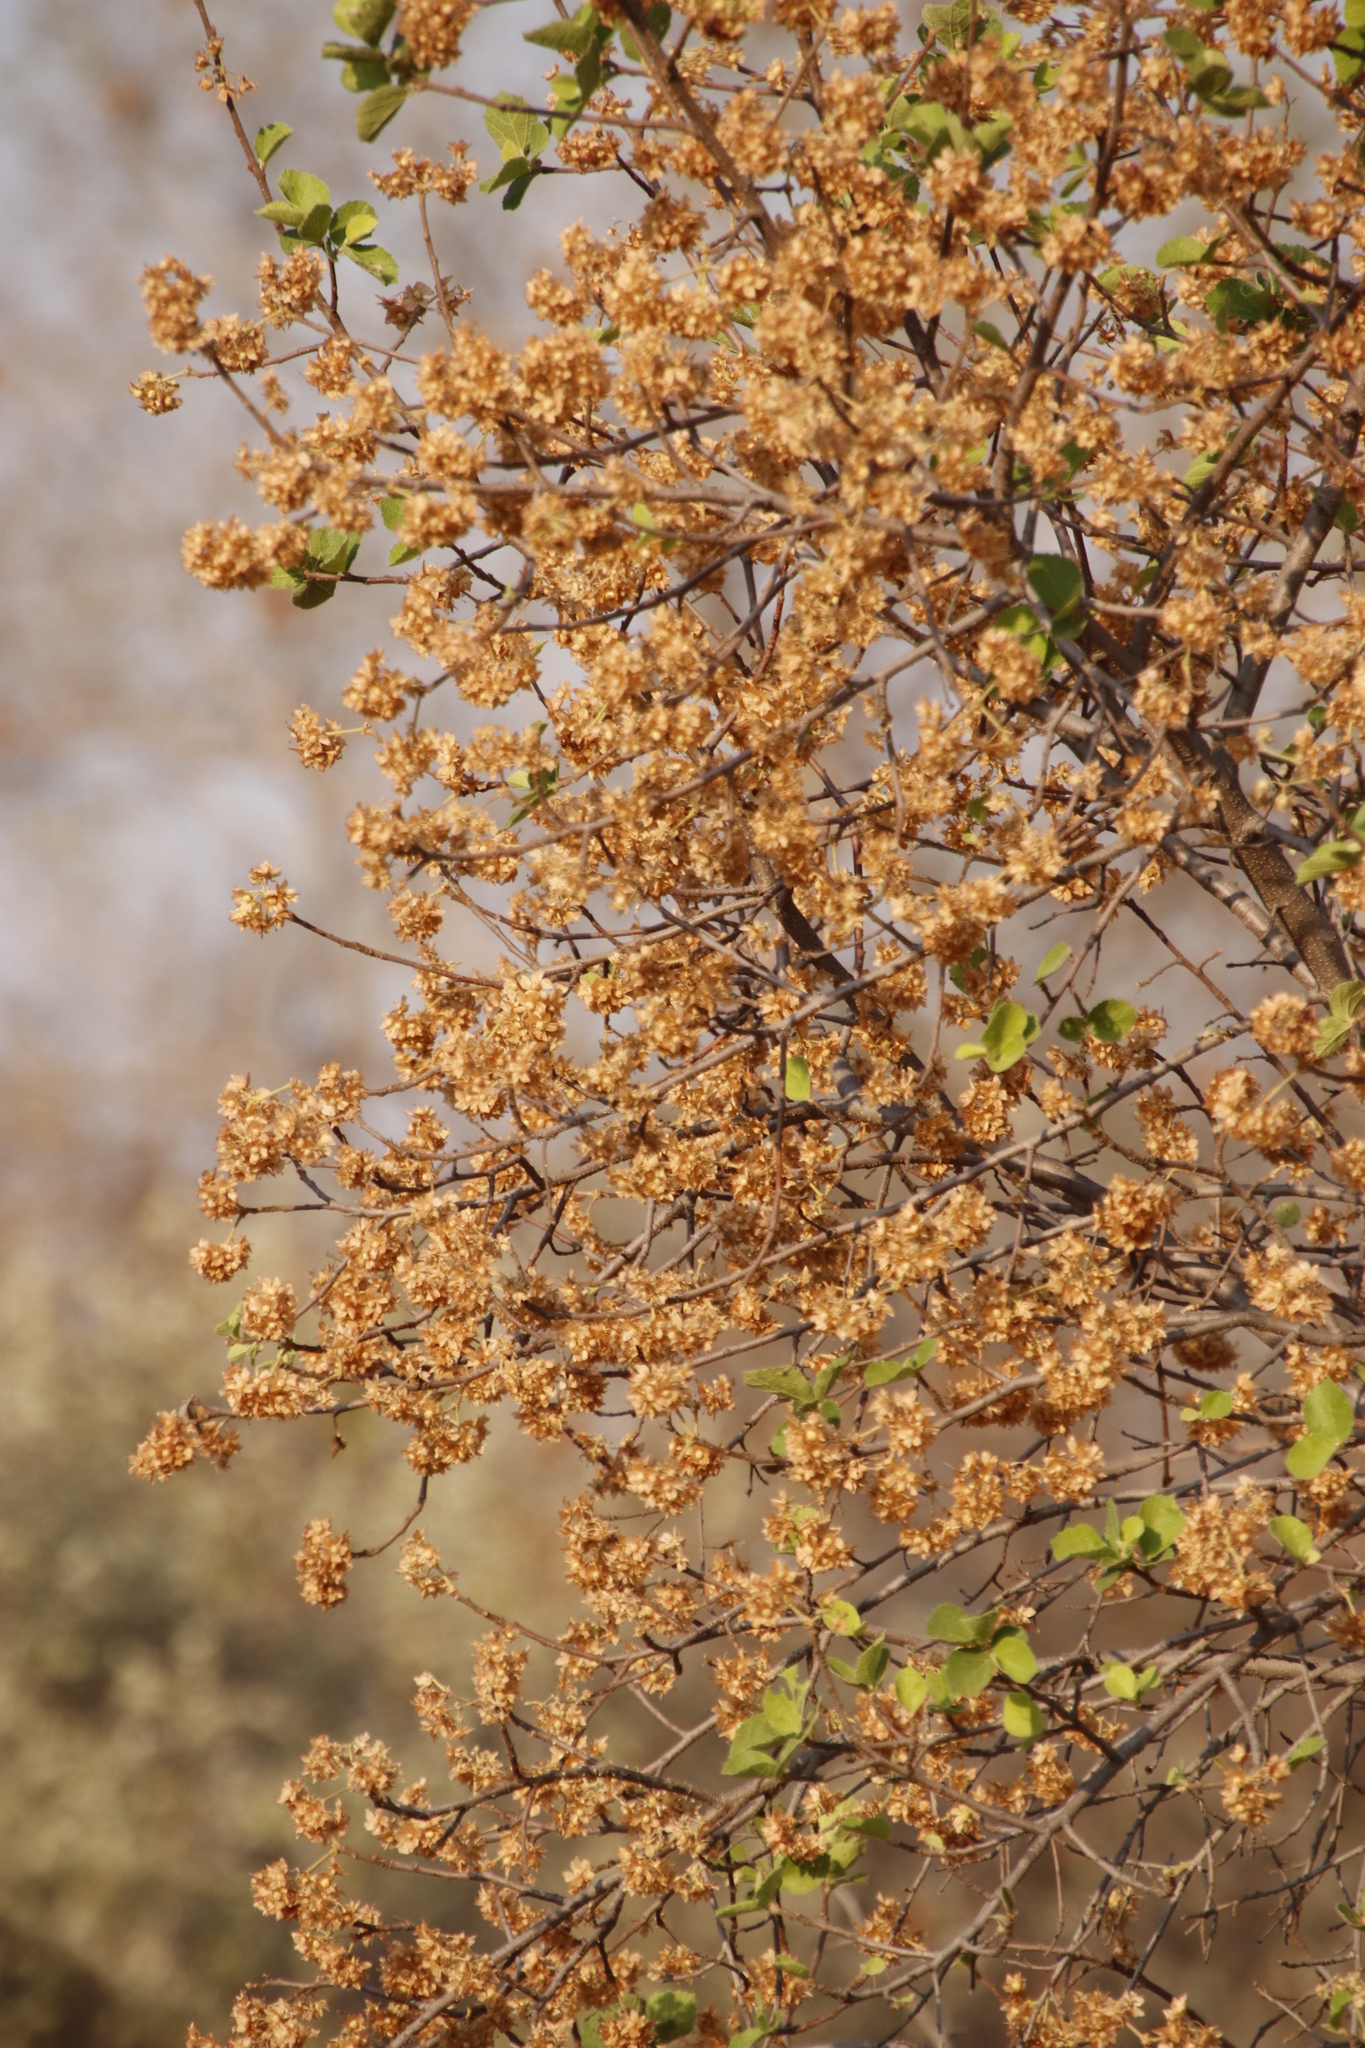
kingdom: Plantae
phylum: Tracheophyta
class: Magnoliopsida
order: Malvales
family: Malvaceae
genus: Dombeya
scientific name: Dombeya rotundifolia
